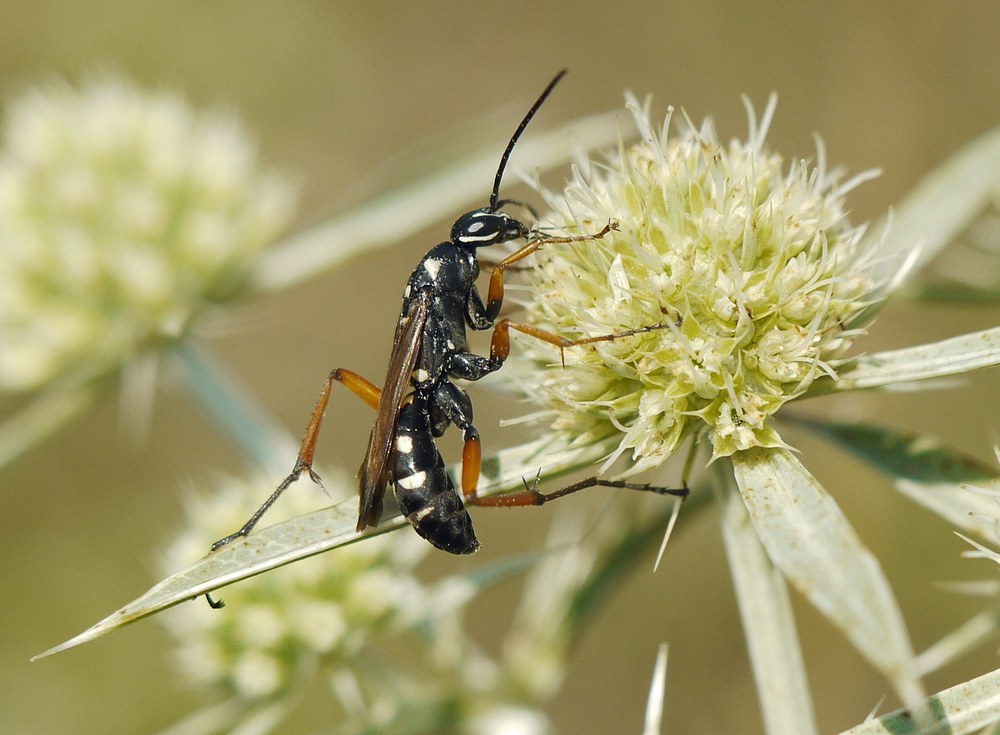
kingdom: Animalia
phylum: Arthropoda
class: Insecta
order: Hymenoptera
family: Pompilidae
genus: Cryptocheilus
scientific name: Cryptocheilus variabilis
